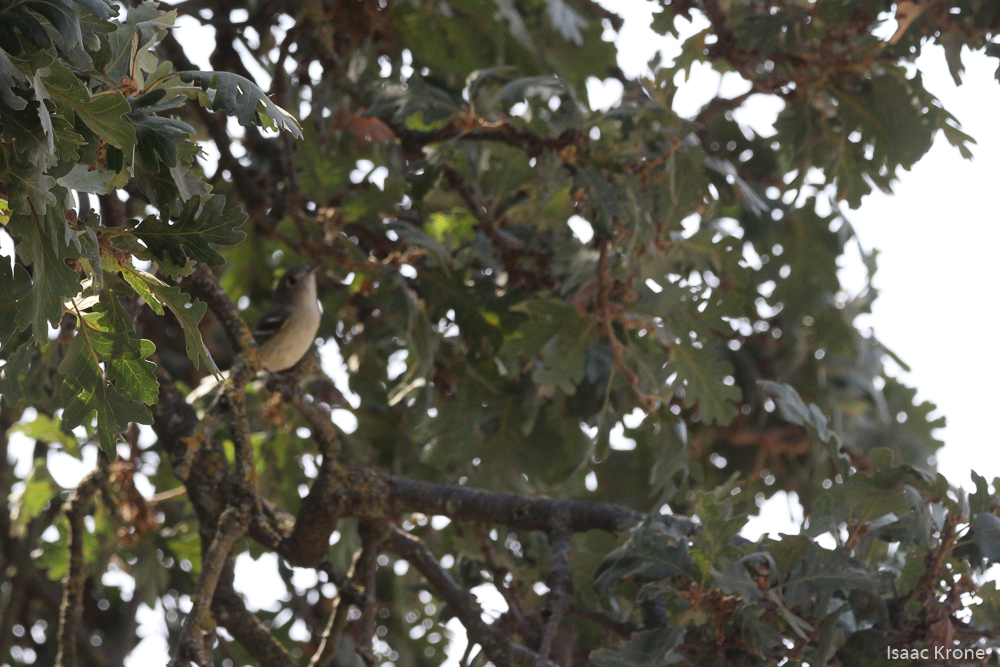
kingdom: Animalia
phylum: Chordata
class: Aves
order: Passeriformes
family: Vireonidae
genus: Vireo
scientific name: Vireo huttoni
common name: Hutton's vireo
